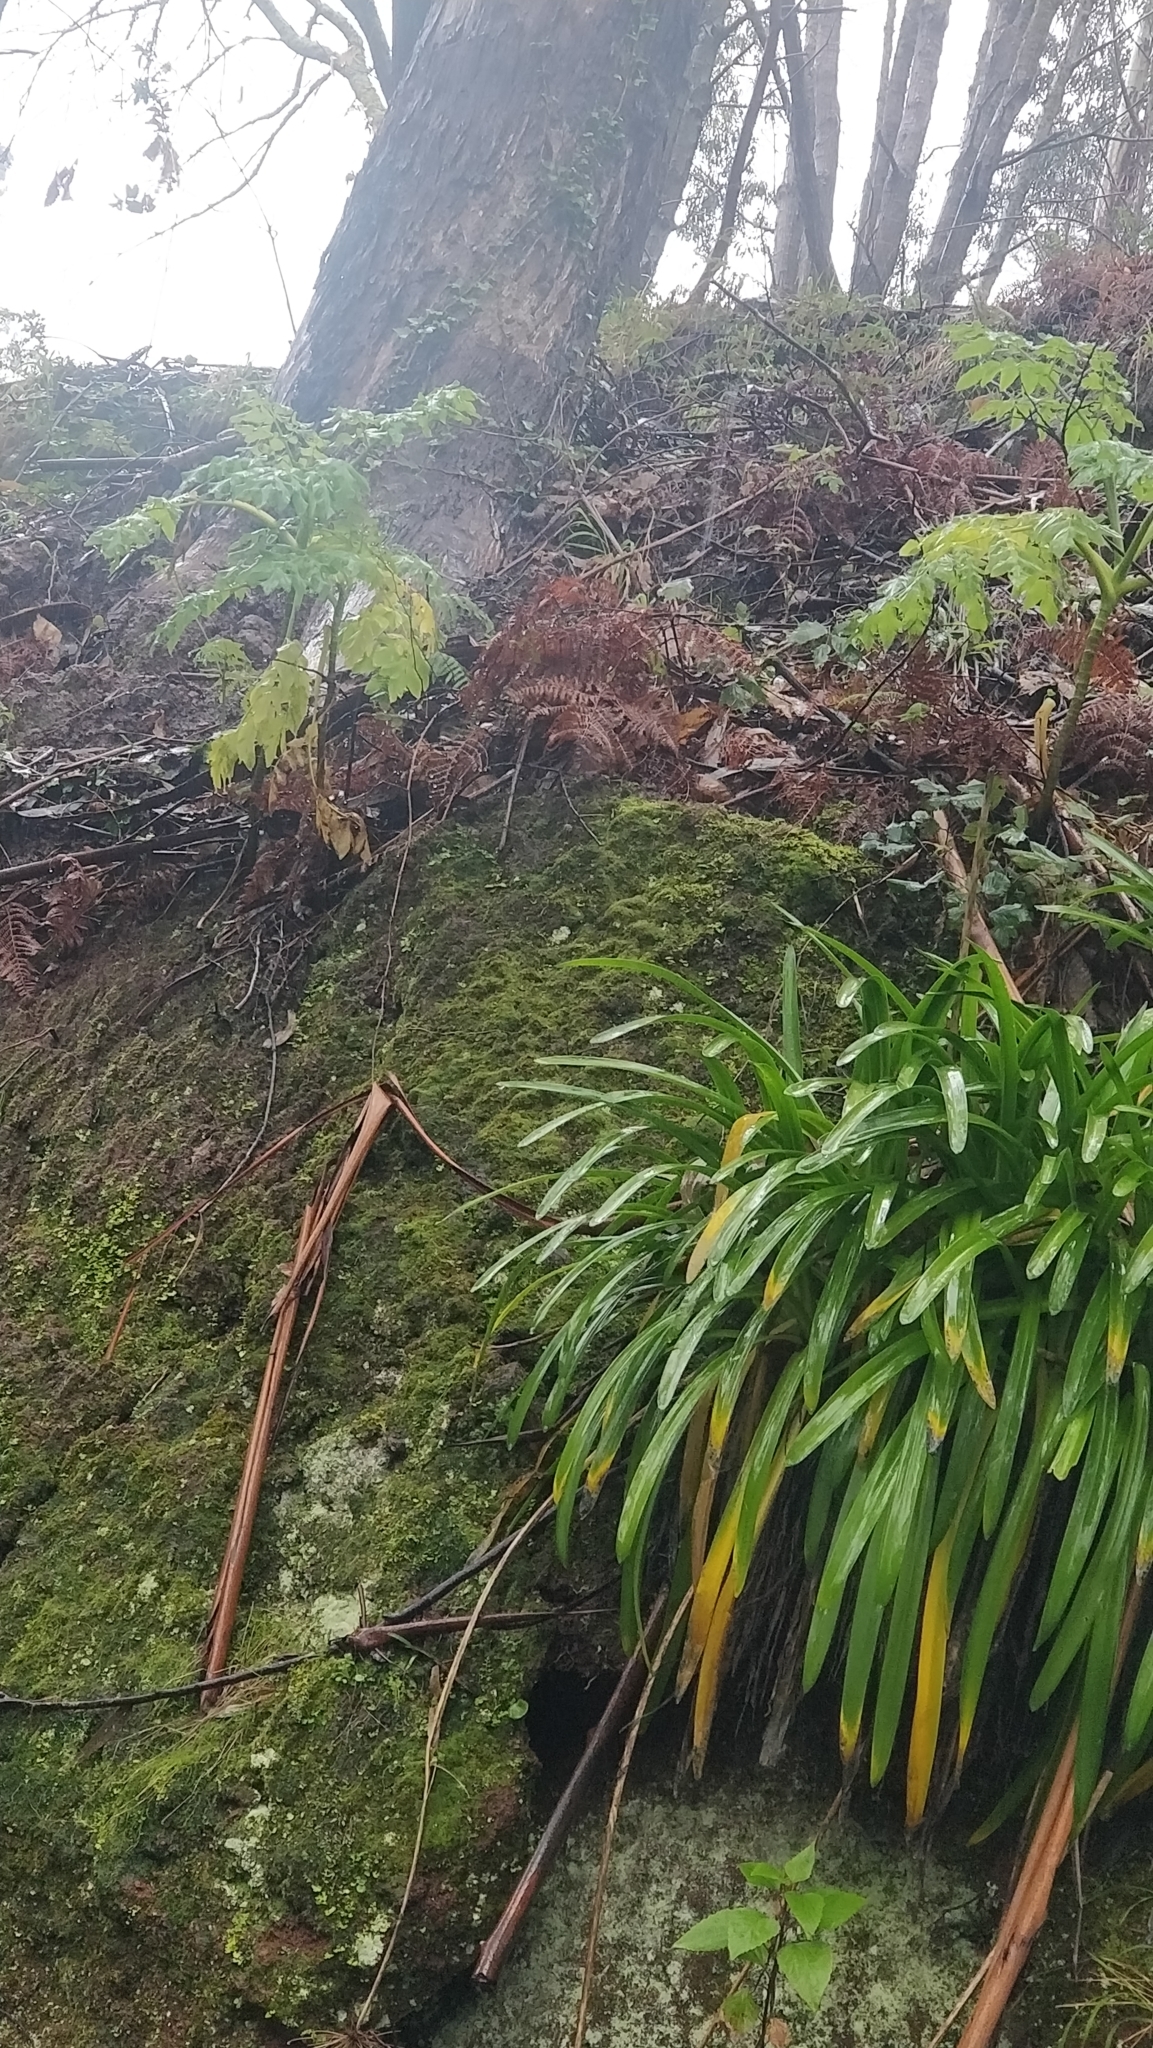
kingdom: Plantae
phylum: Tracheophyta
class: Magnoliopsida
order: Apiales
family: Apiaceae
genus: Daucus
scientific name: Daucus decipiens
